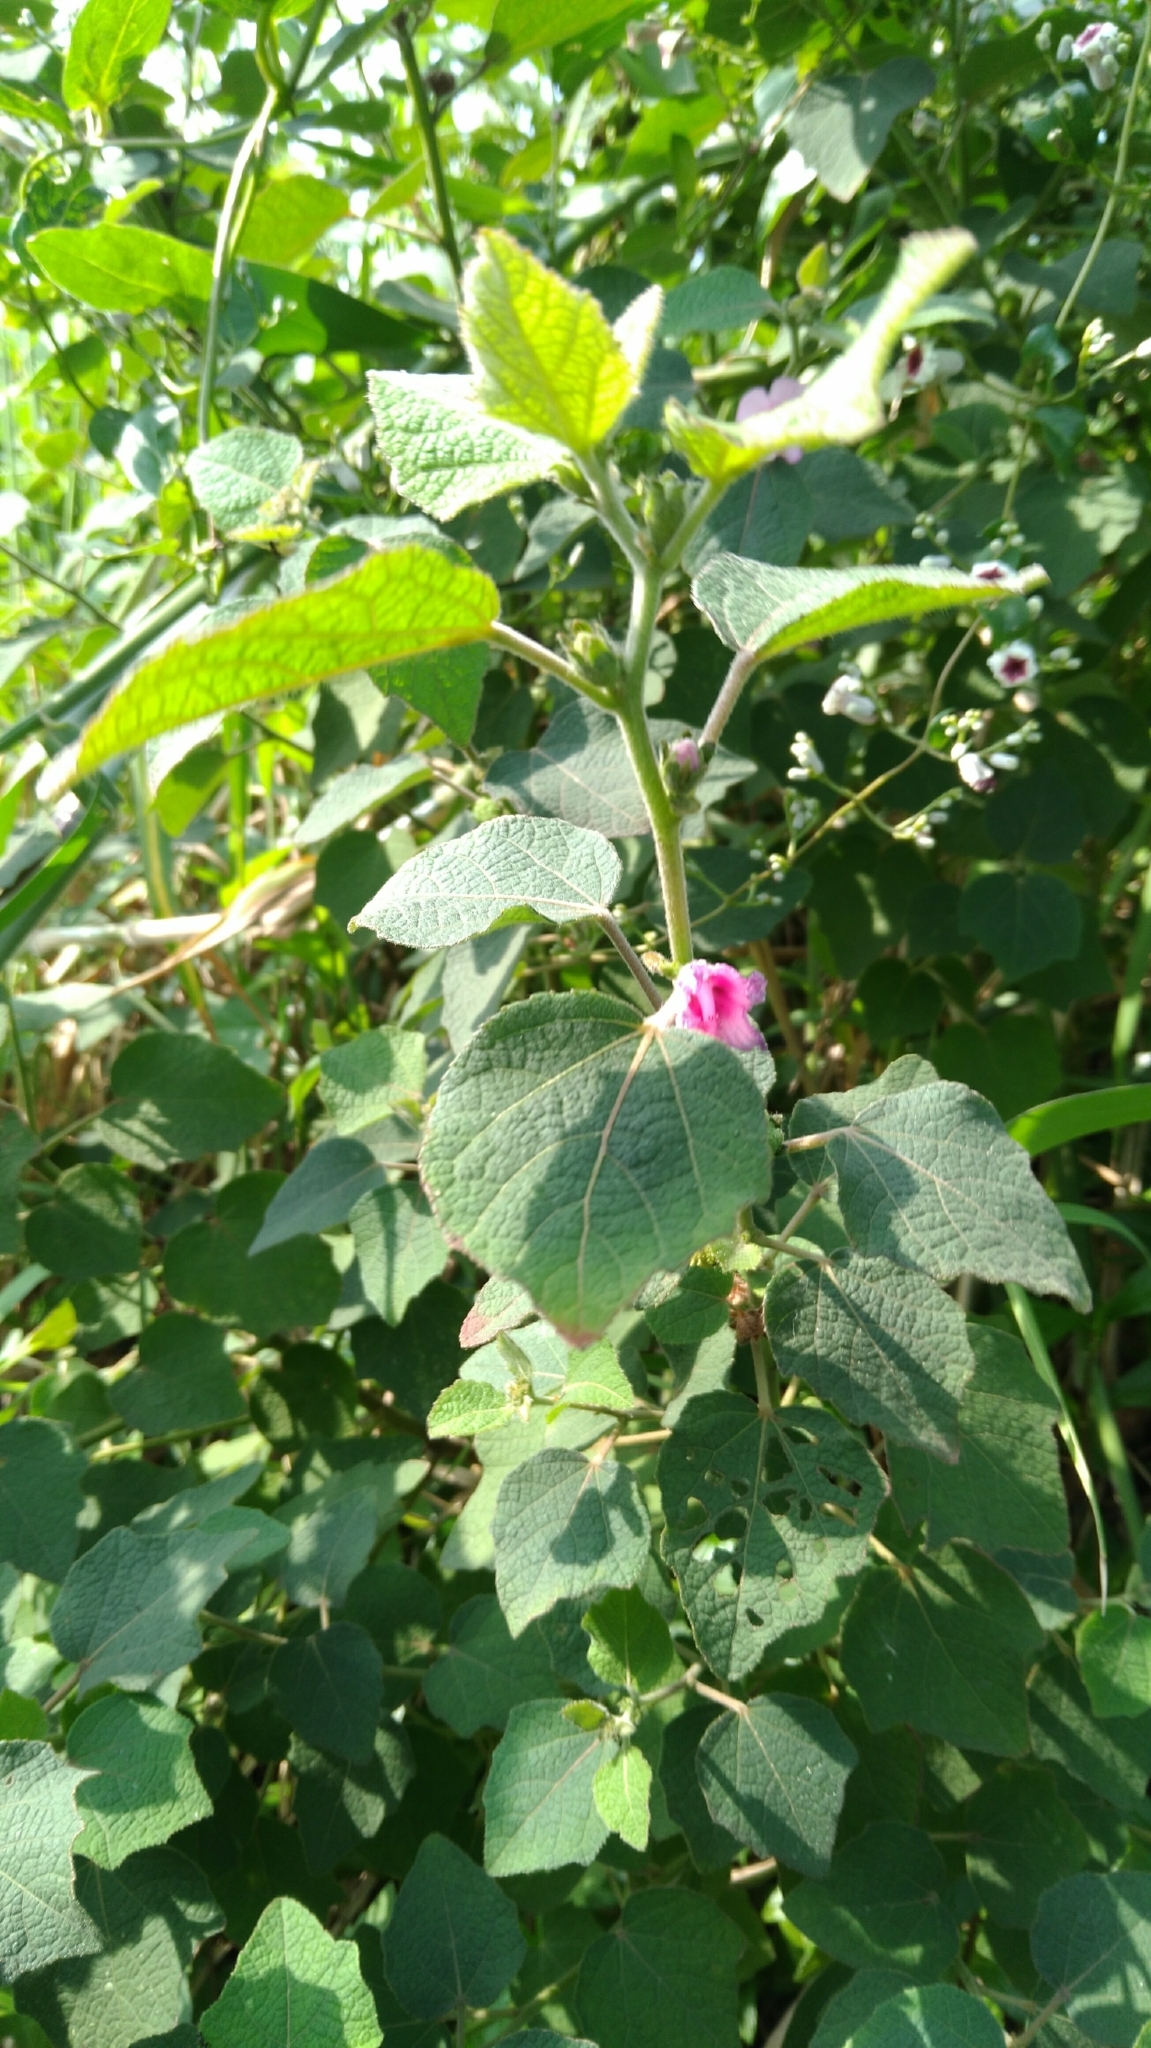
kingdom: Plantae
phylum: Tracheophyta
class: Magnoliopsida
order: Malvales
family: Malvaceae
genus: Urena
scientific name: Urena lobata
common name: Caesarweed
